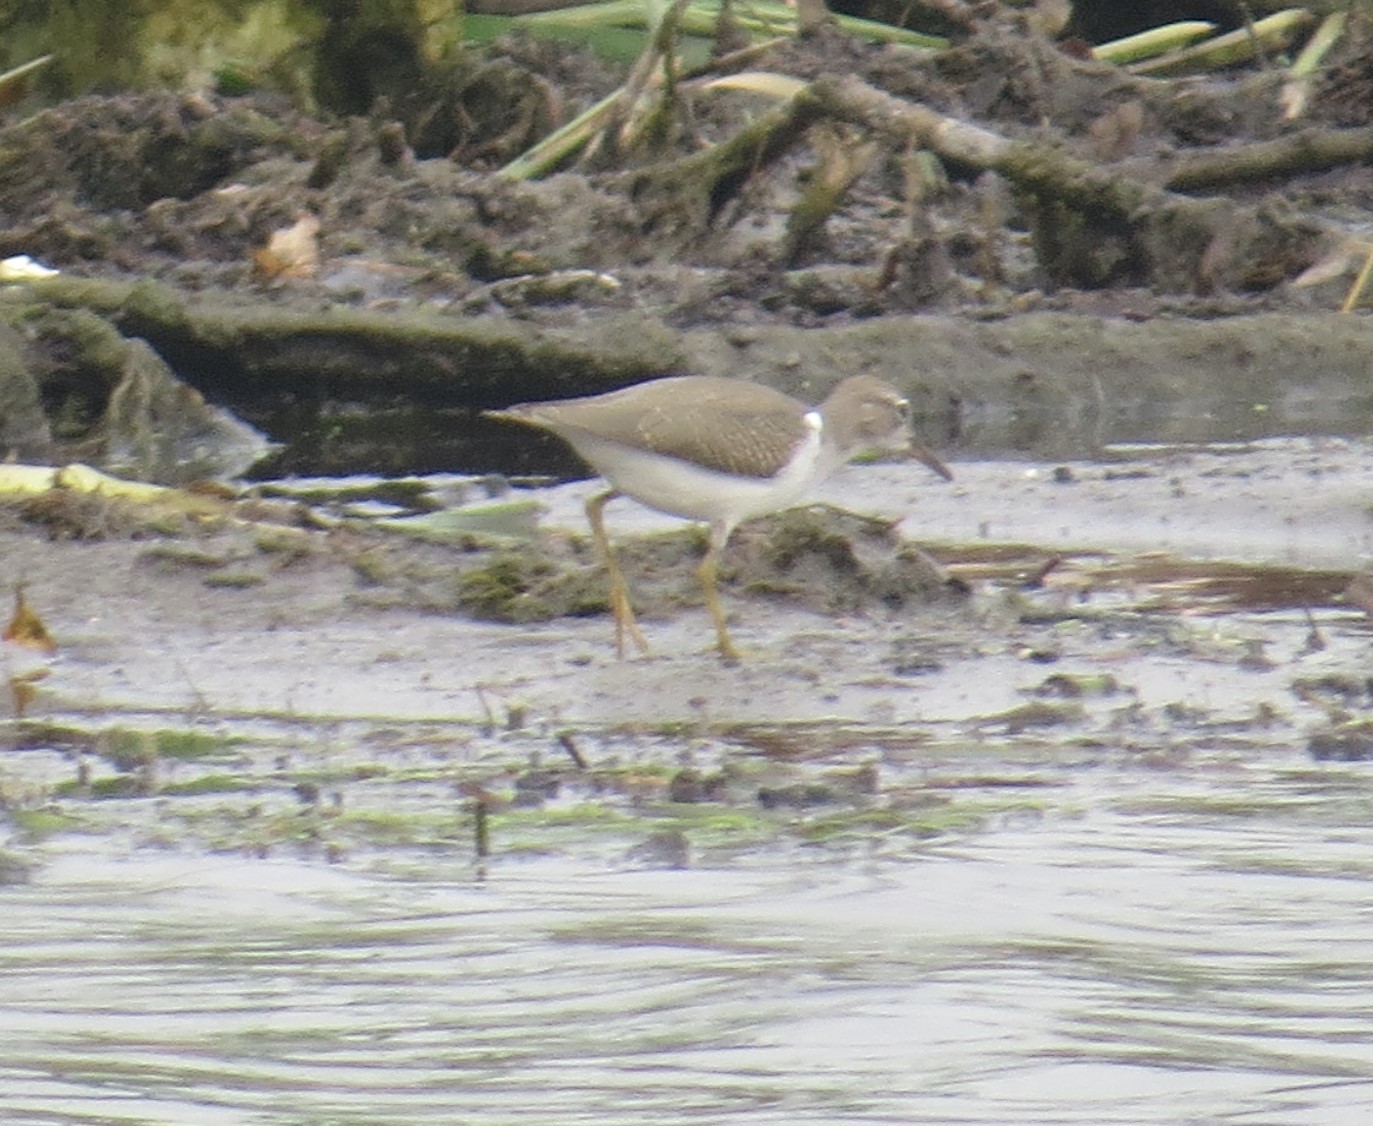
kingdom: Animalia
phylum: Chordata
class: Aves
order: Charadriiformes
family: Scolopacidae
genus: Actitis
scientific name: Actitis macularius
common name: Spotted sandpiper
